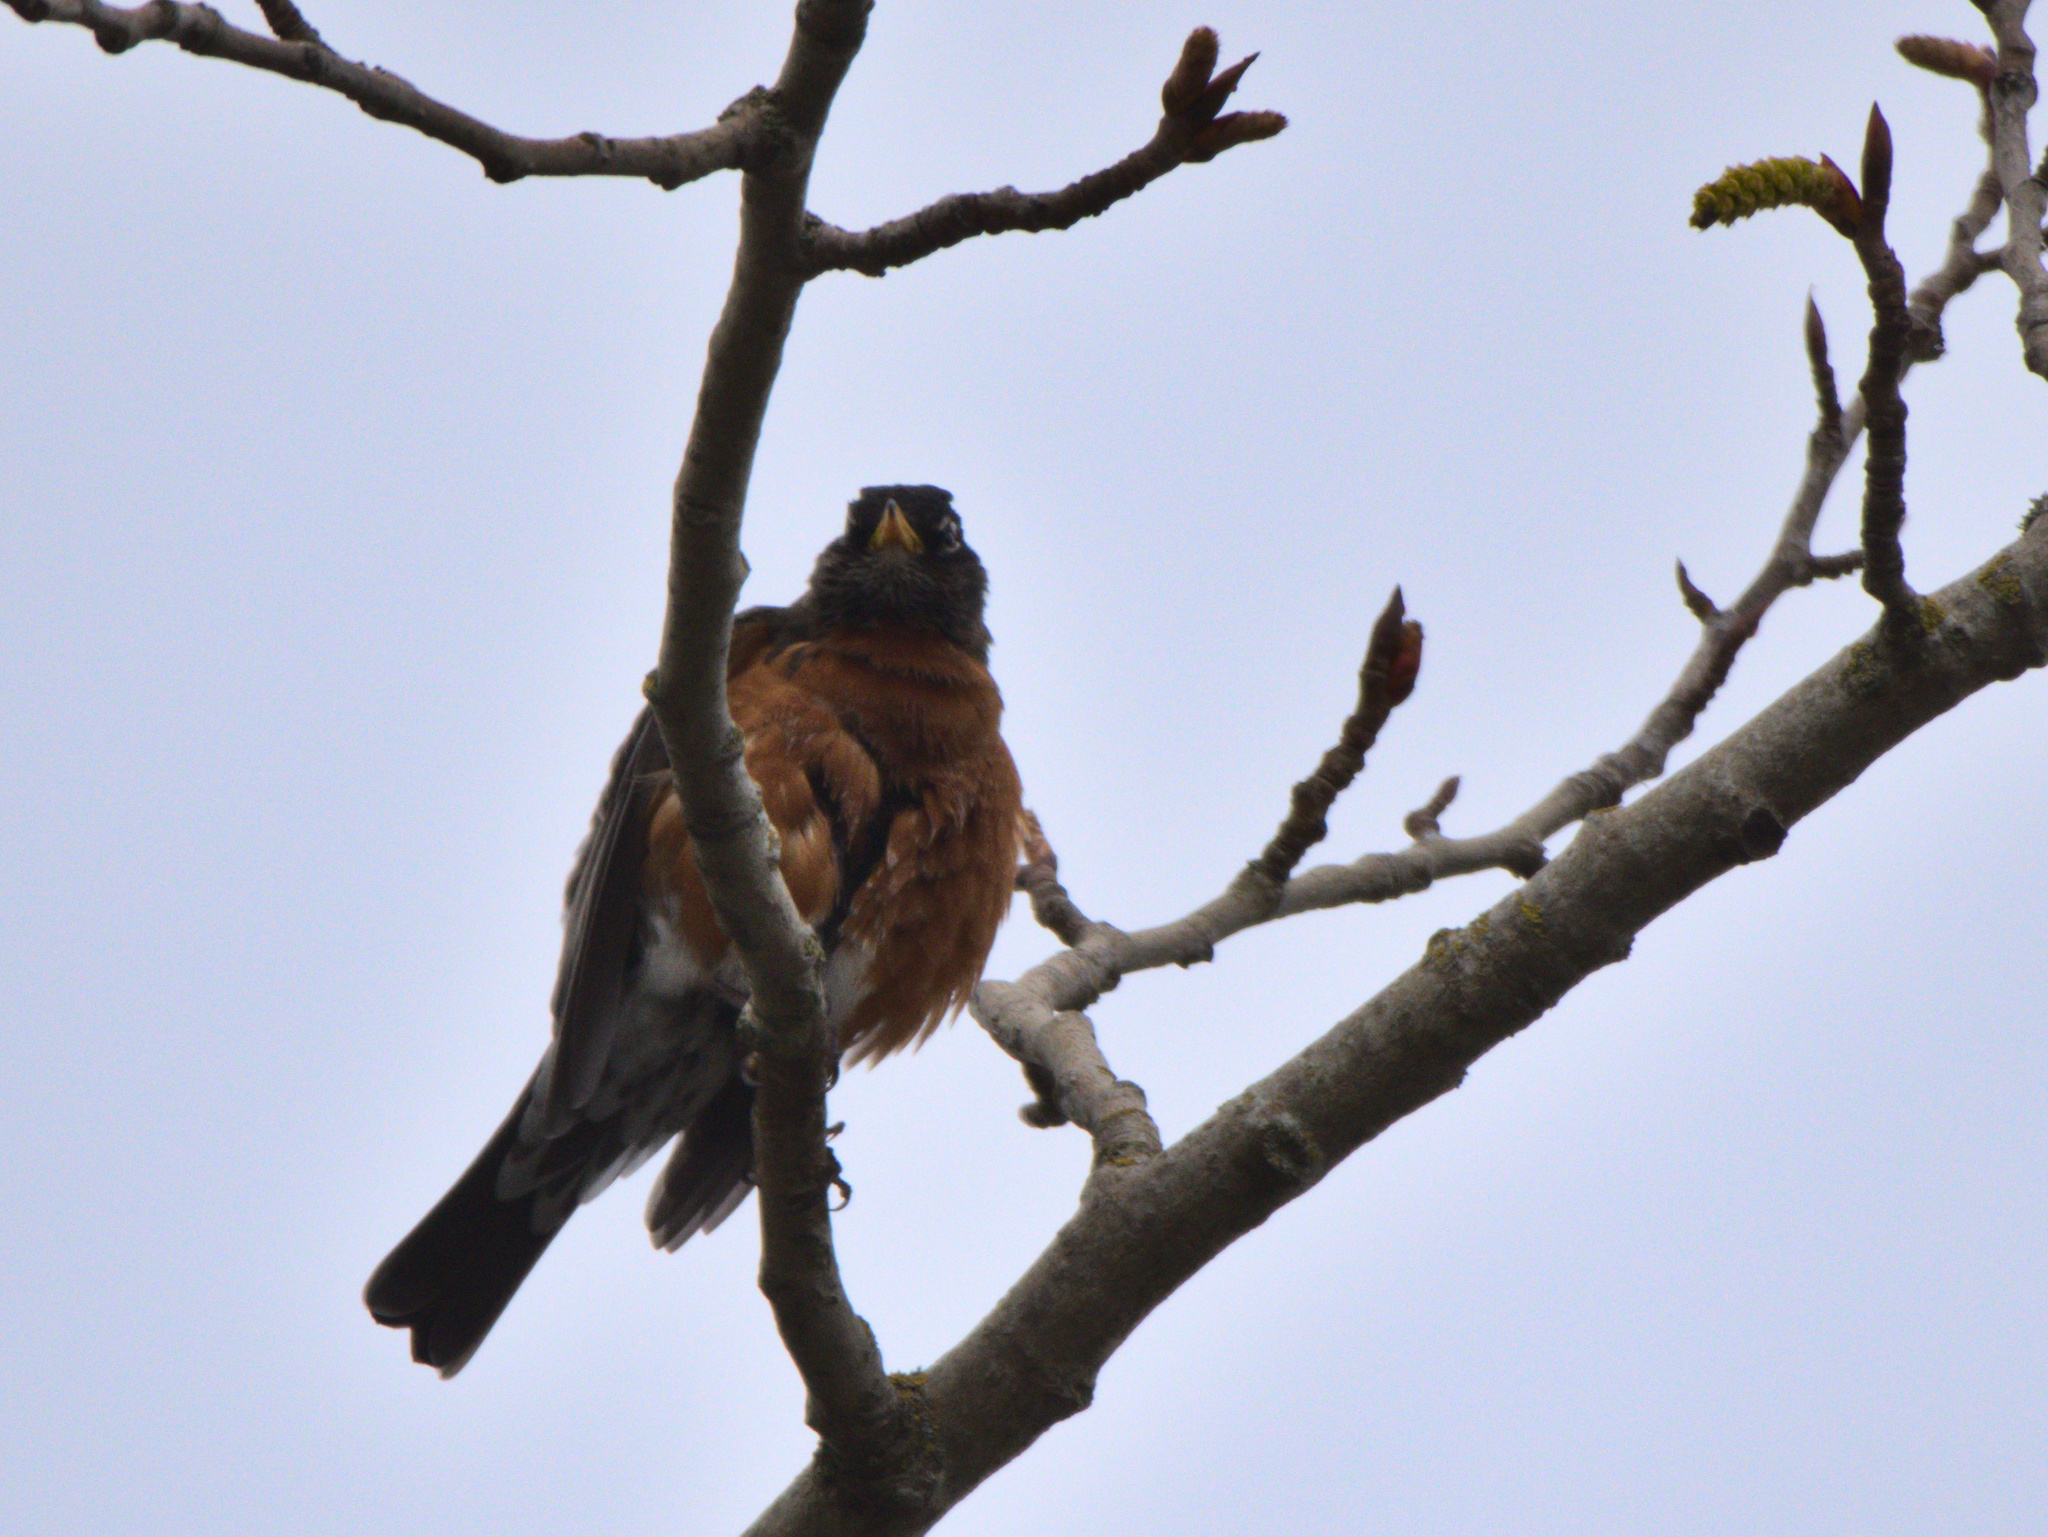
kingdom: Animalia
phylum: Chordata
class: Aves
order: Passeriformes
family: Turdidae
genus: Turdus
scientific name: Turdus migratorius
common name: American robin
